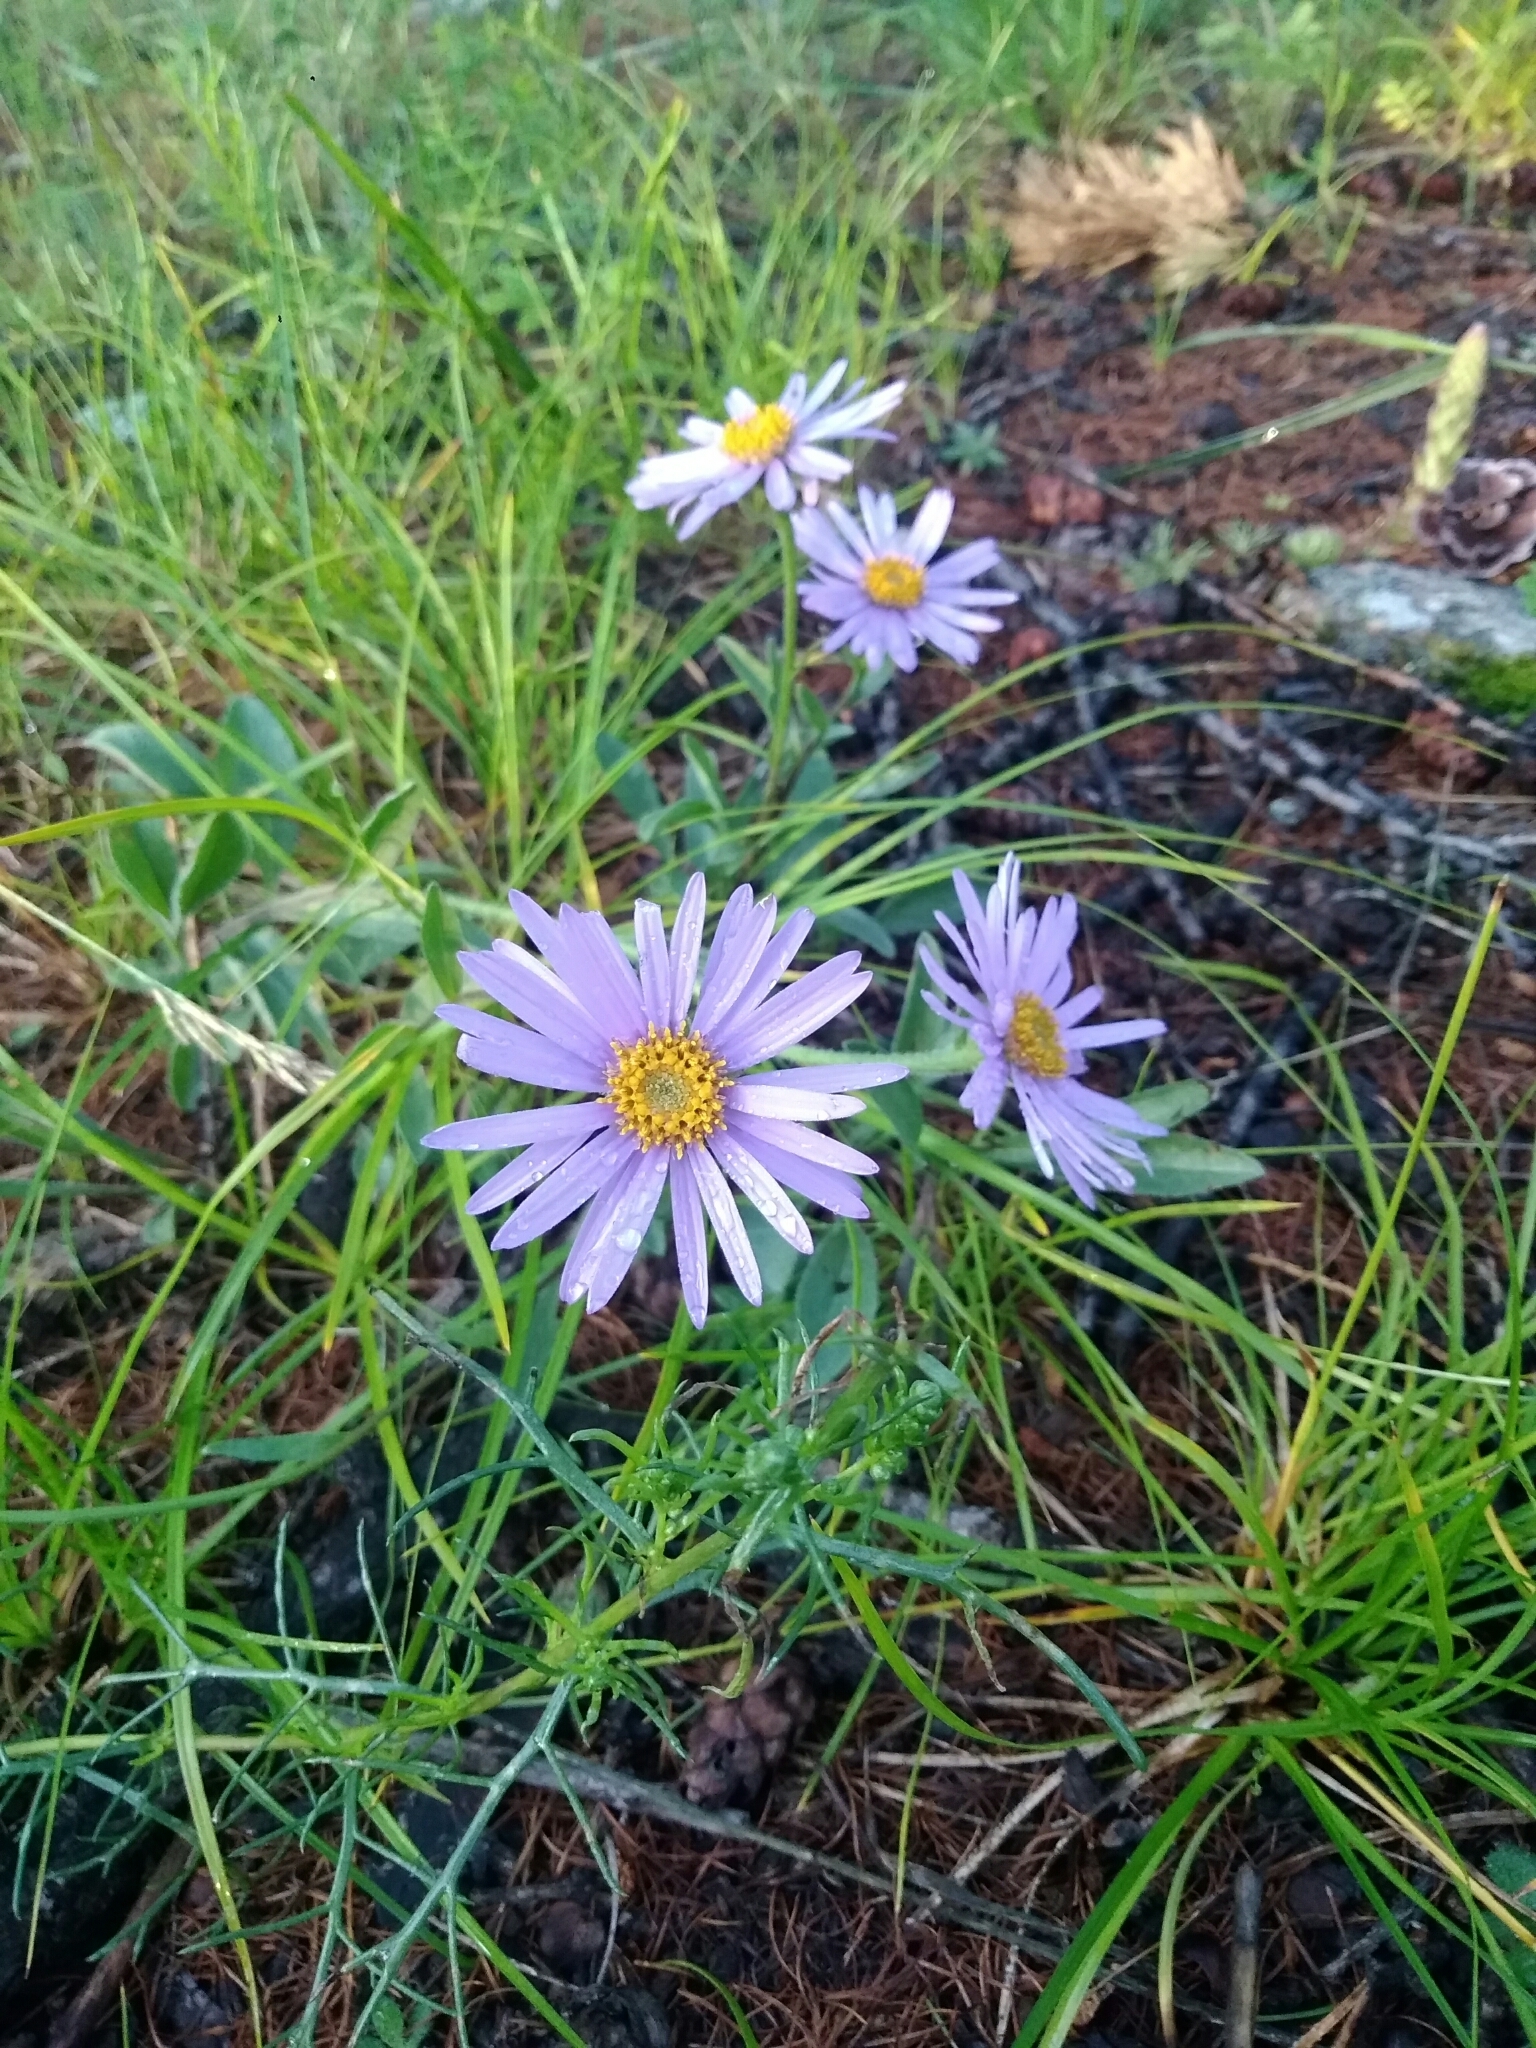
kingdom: Plantae
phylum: Tracheophyta
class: Magnoliopsida
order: Asterales
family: Asteraceae
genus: Aster
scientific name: Aster alpinus
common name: Alpine aster
